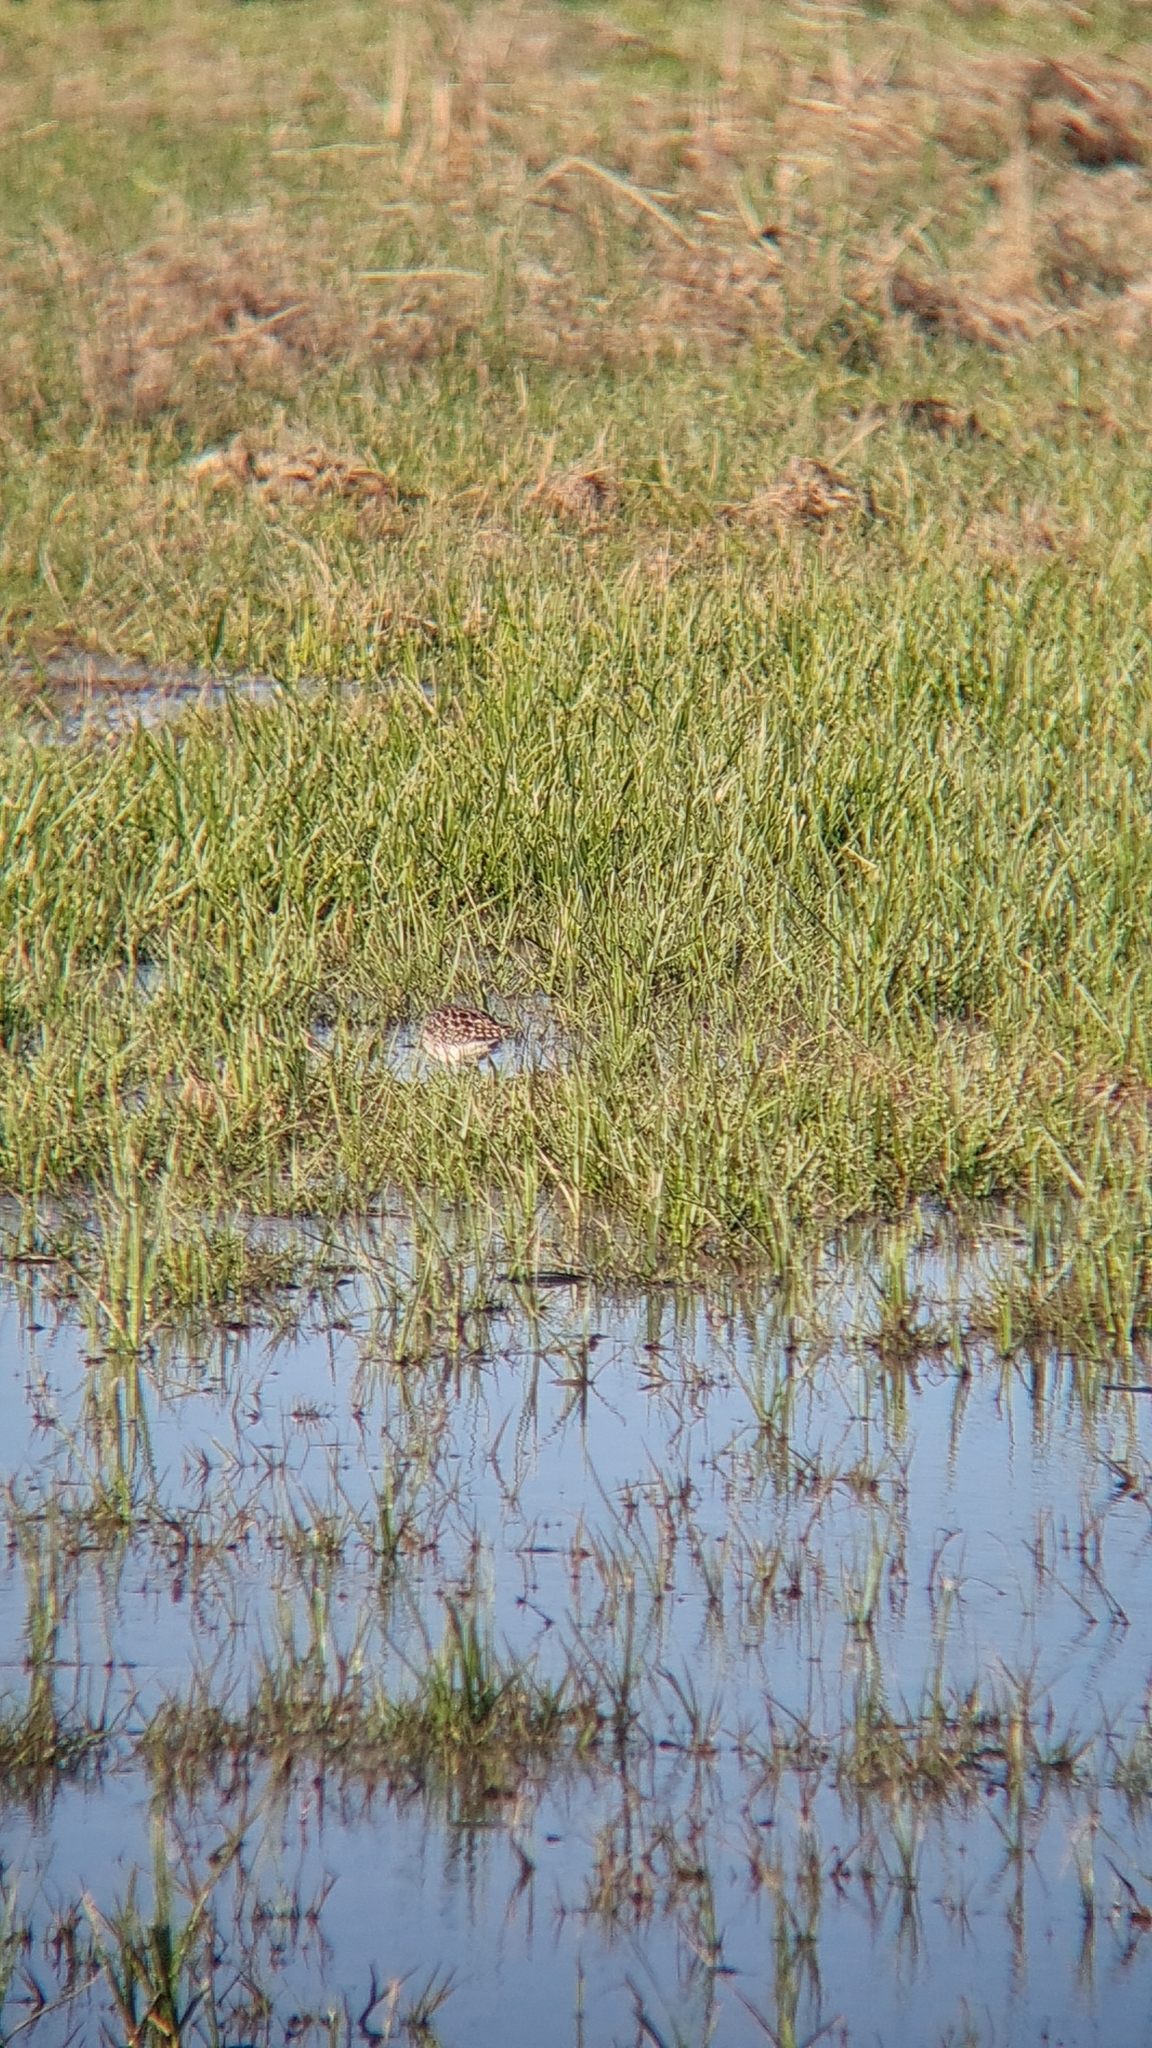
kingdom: Animalia
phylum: Chordata
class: Aves
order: Charadriiformes
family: Scolopacidae
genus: Tringa
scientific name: Tringa glareola
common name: Wood sandpiper
